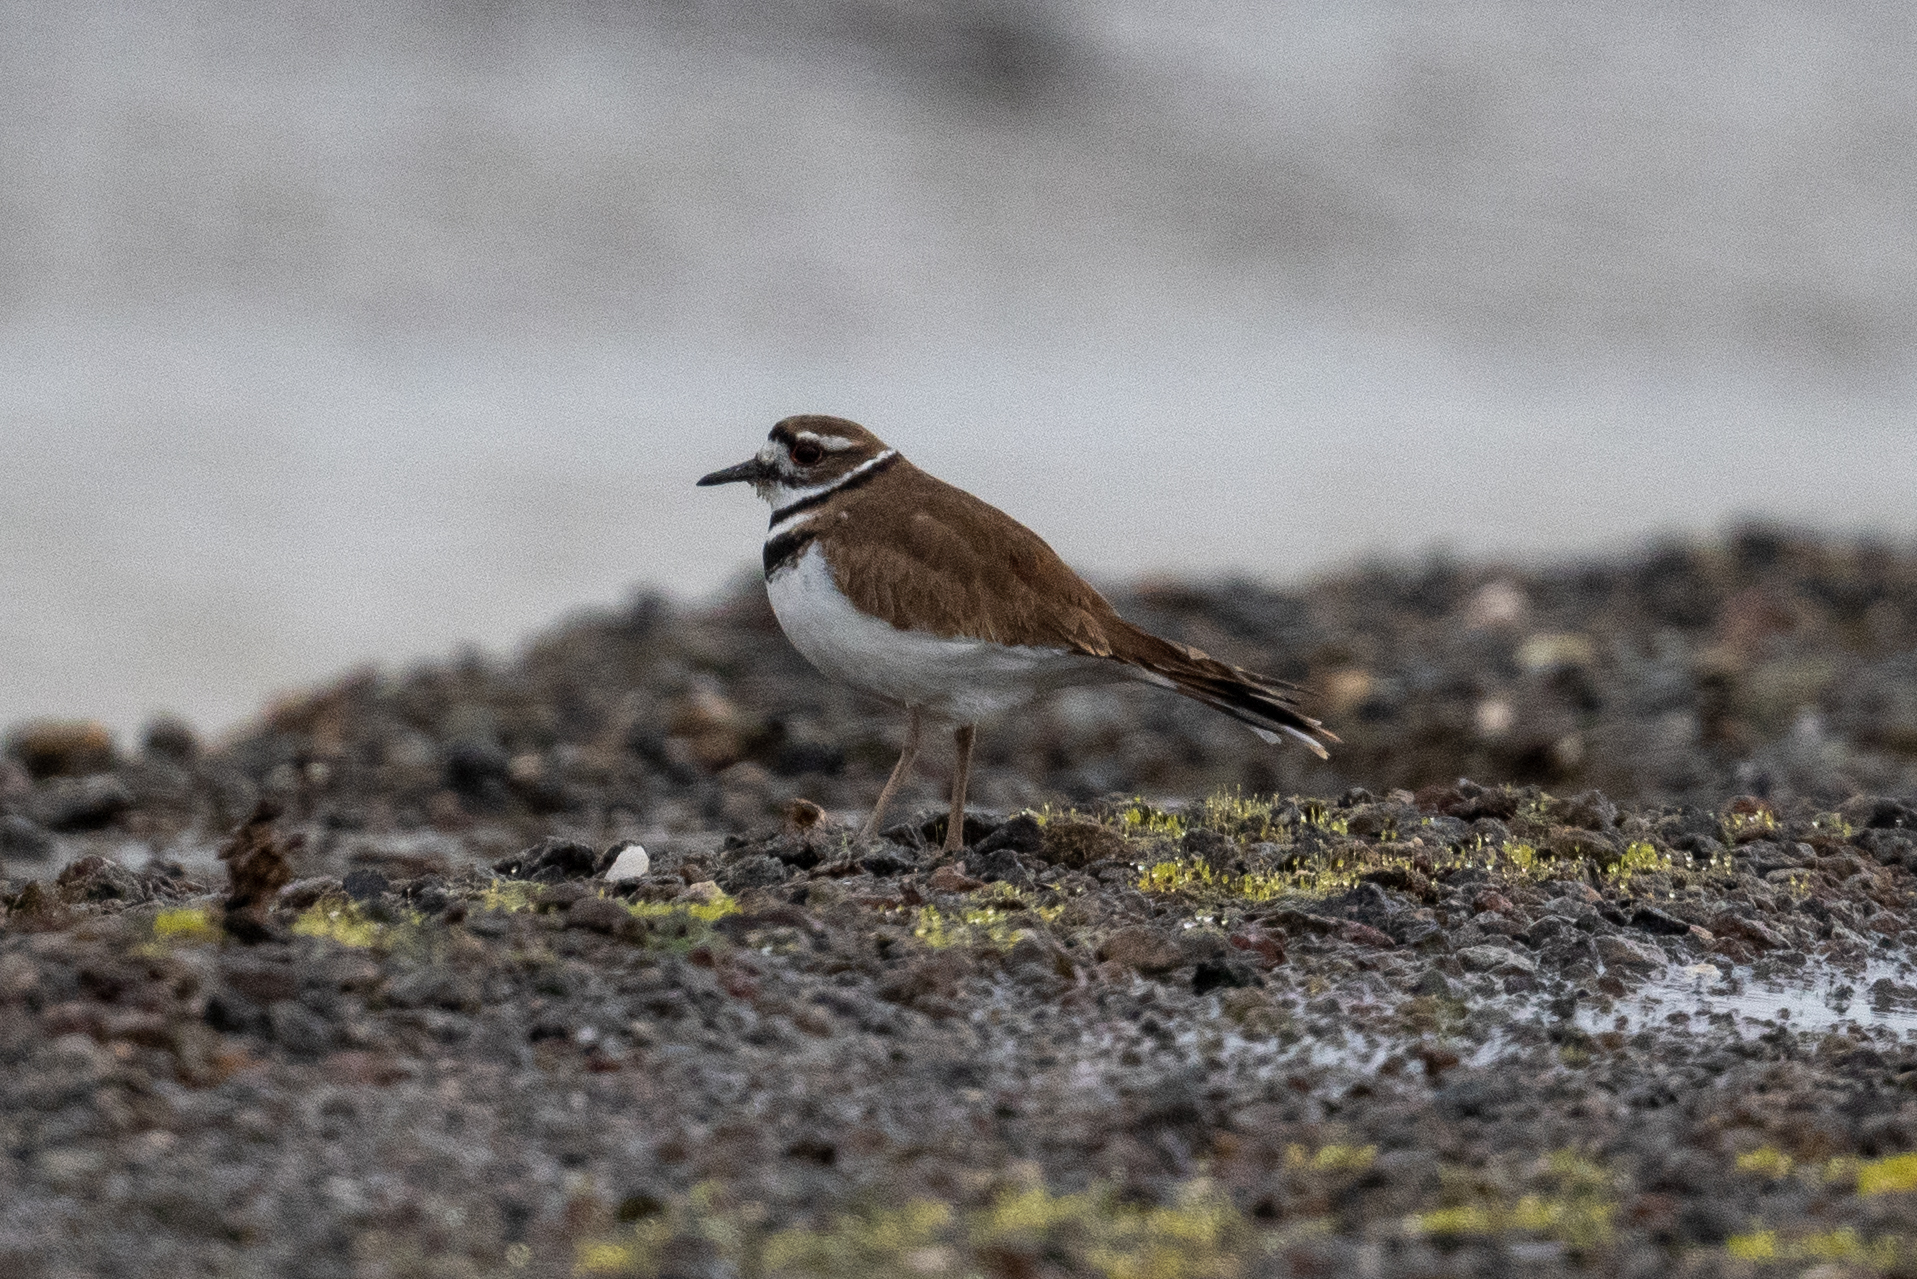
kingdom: Animalia
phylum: Chordata
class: Aves
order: Charadriiformes
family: Charadriidae
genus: Charadrius
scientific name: Charadrius vociferus
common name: Killdeer
